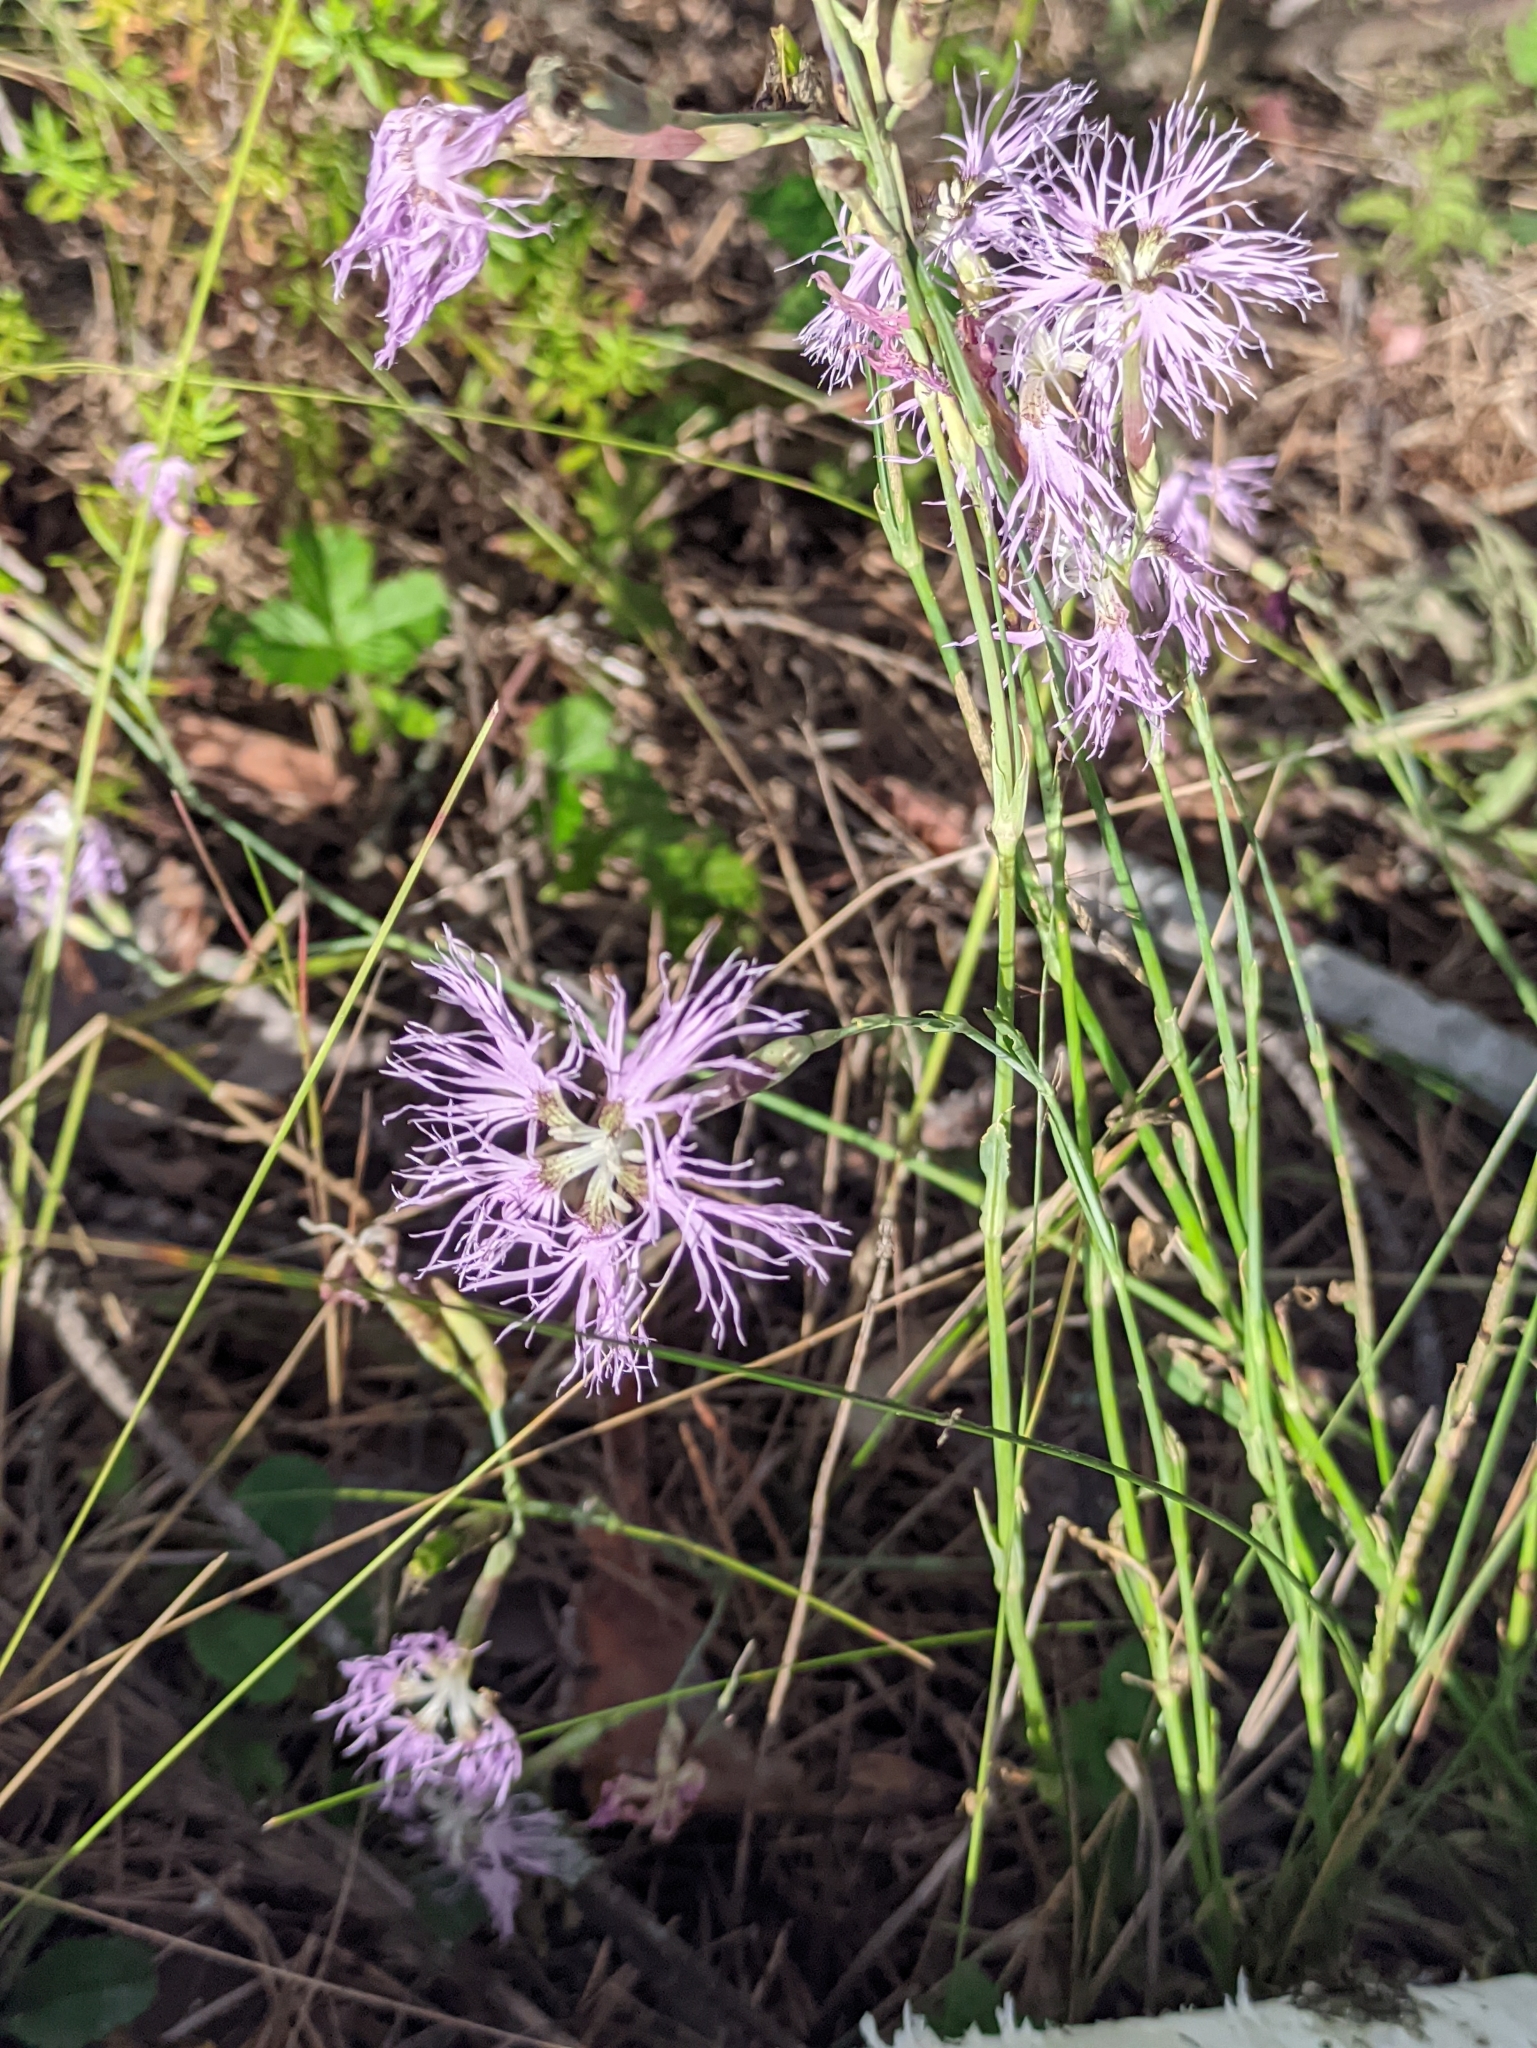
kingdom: Plantae
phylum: Tracheophyta
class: Magnoliopsida
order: Caryophyllales
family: Caryophyllaceae
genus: Dianthus
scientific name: Dianthus superbus
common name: Fringed pink
